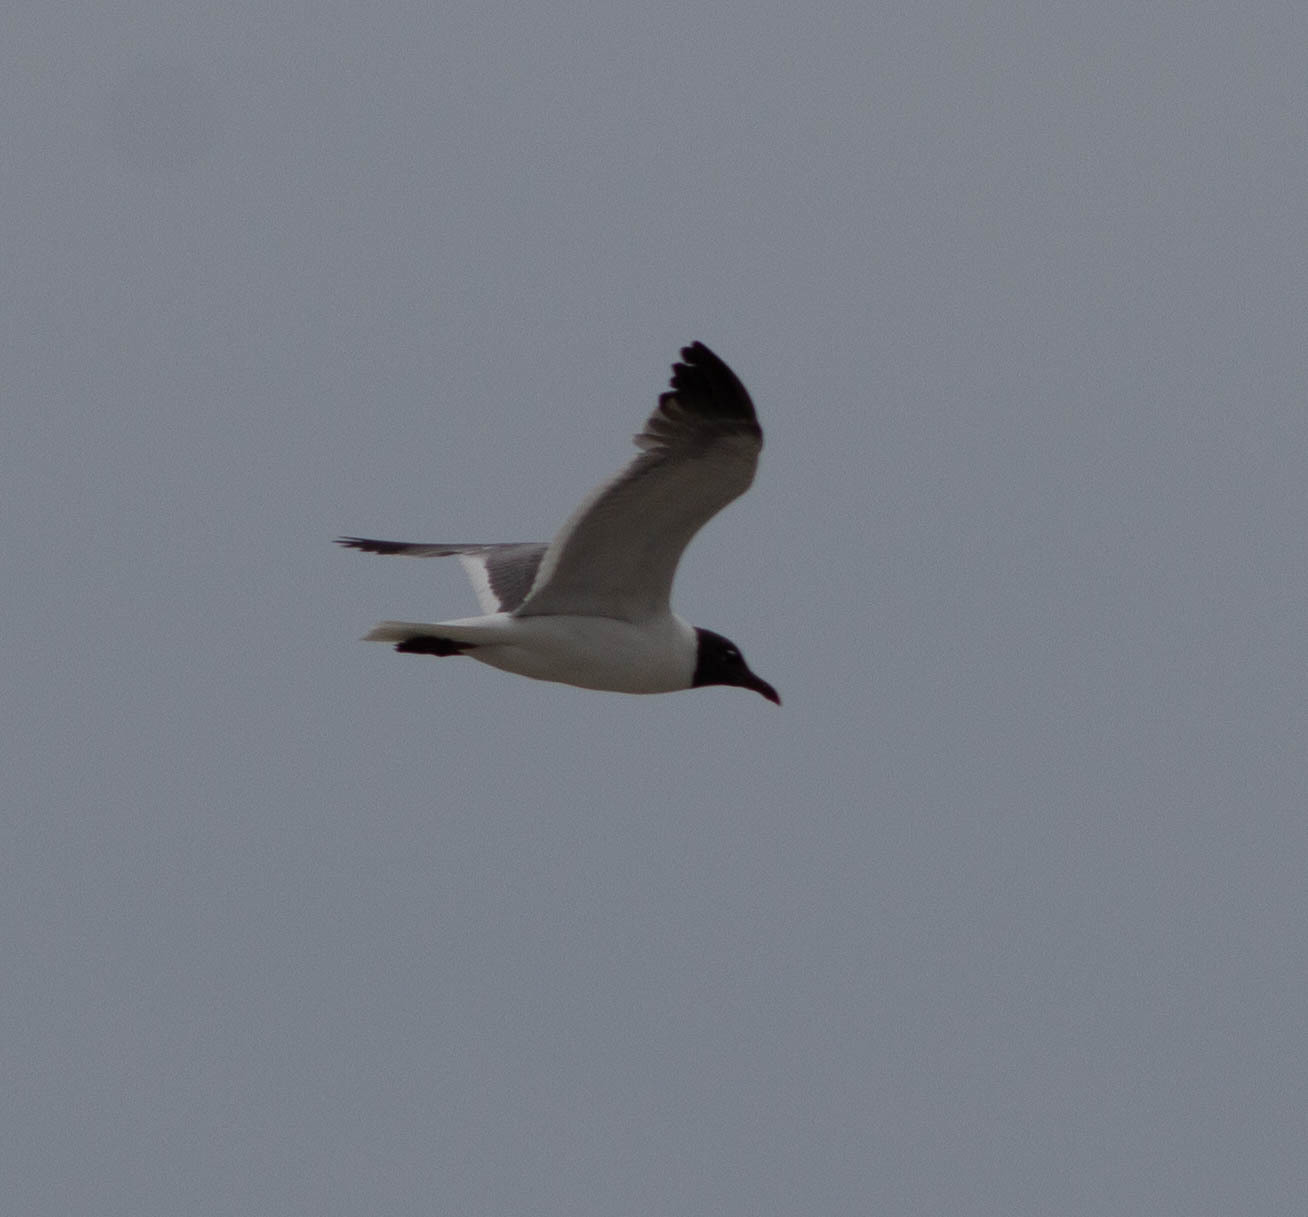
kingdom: Animalia
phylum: Chordata
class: Aves
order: Charadriiformes
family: Laridae
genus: Leucophaeus
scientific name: Leucophaeus atricilla
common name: Laughing gull
